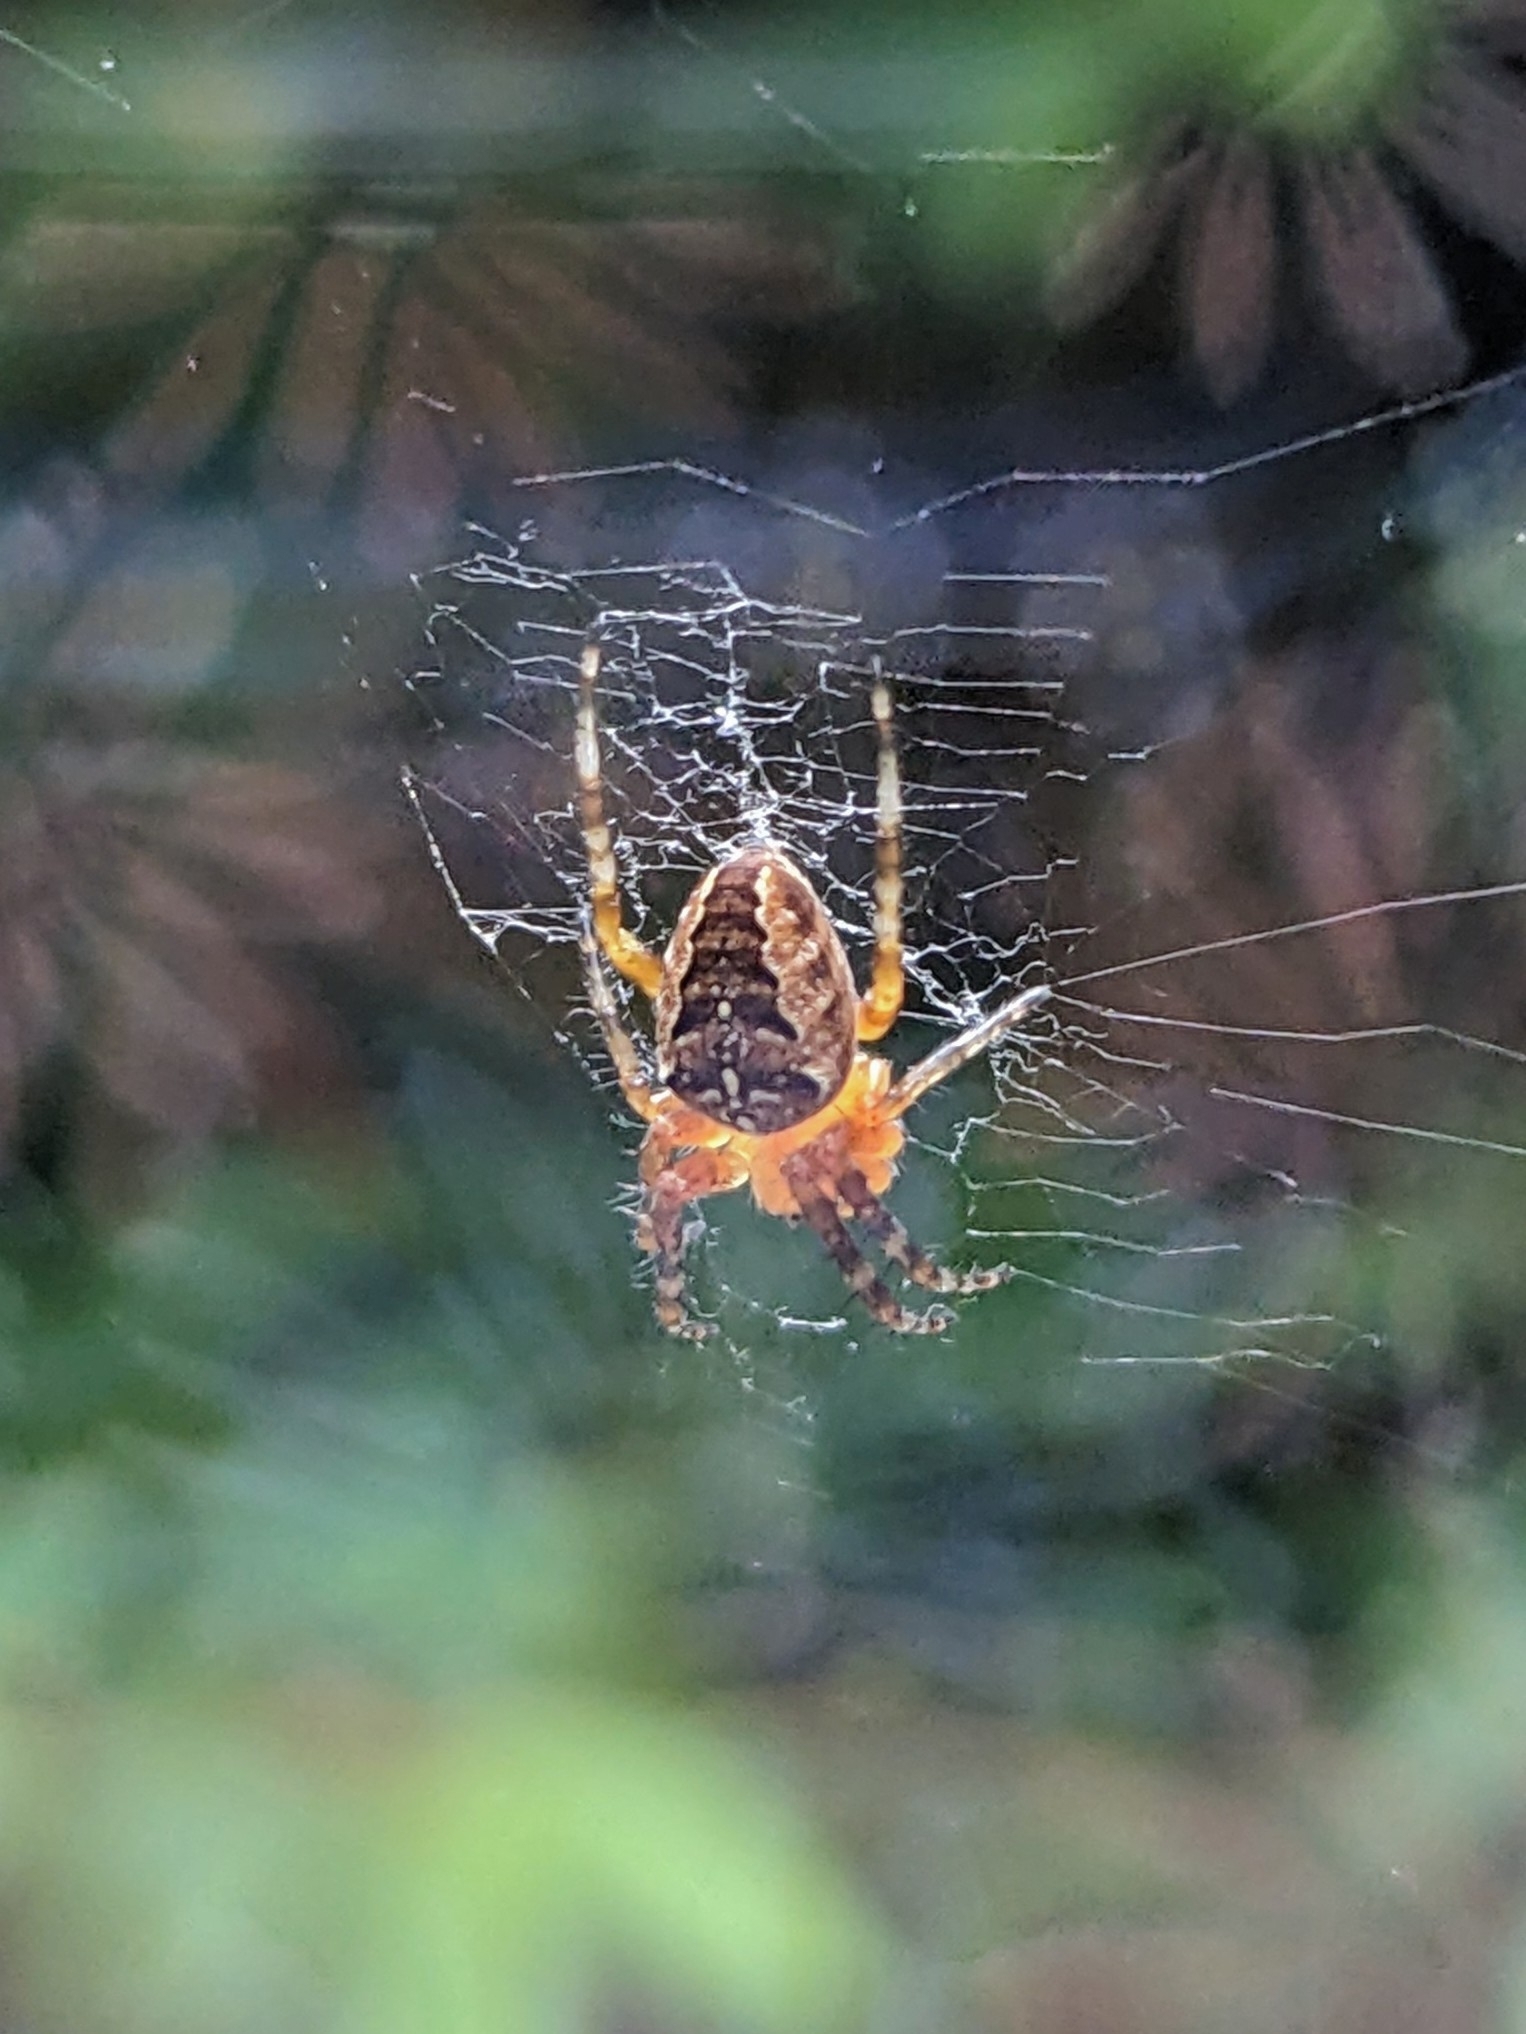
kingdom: Animalia
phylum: Arthropoda
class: Arachnida
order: Araneae
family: Araneidae
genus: Araneus
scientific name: Araneus diadematus
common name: Cross orbweaver
